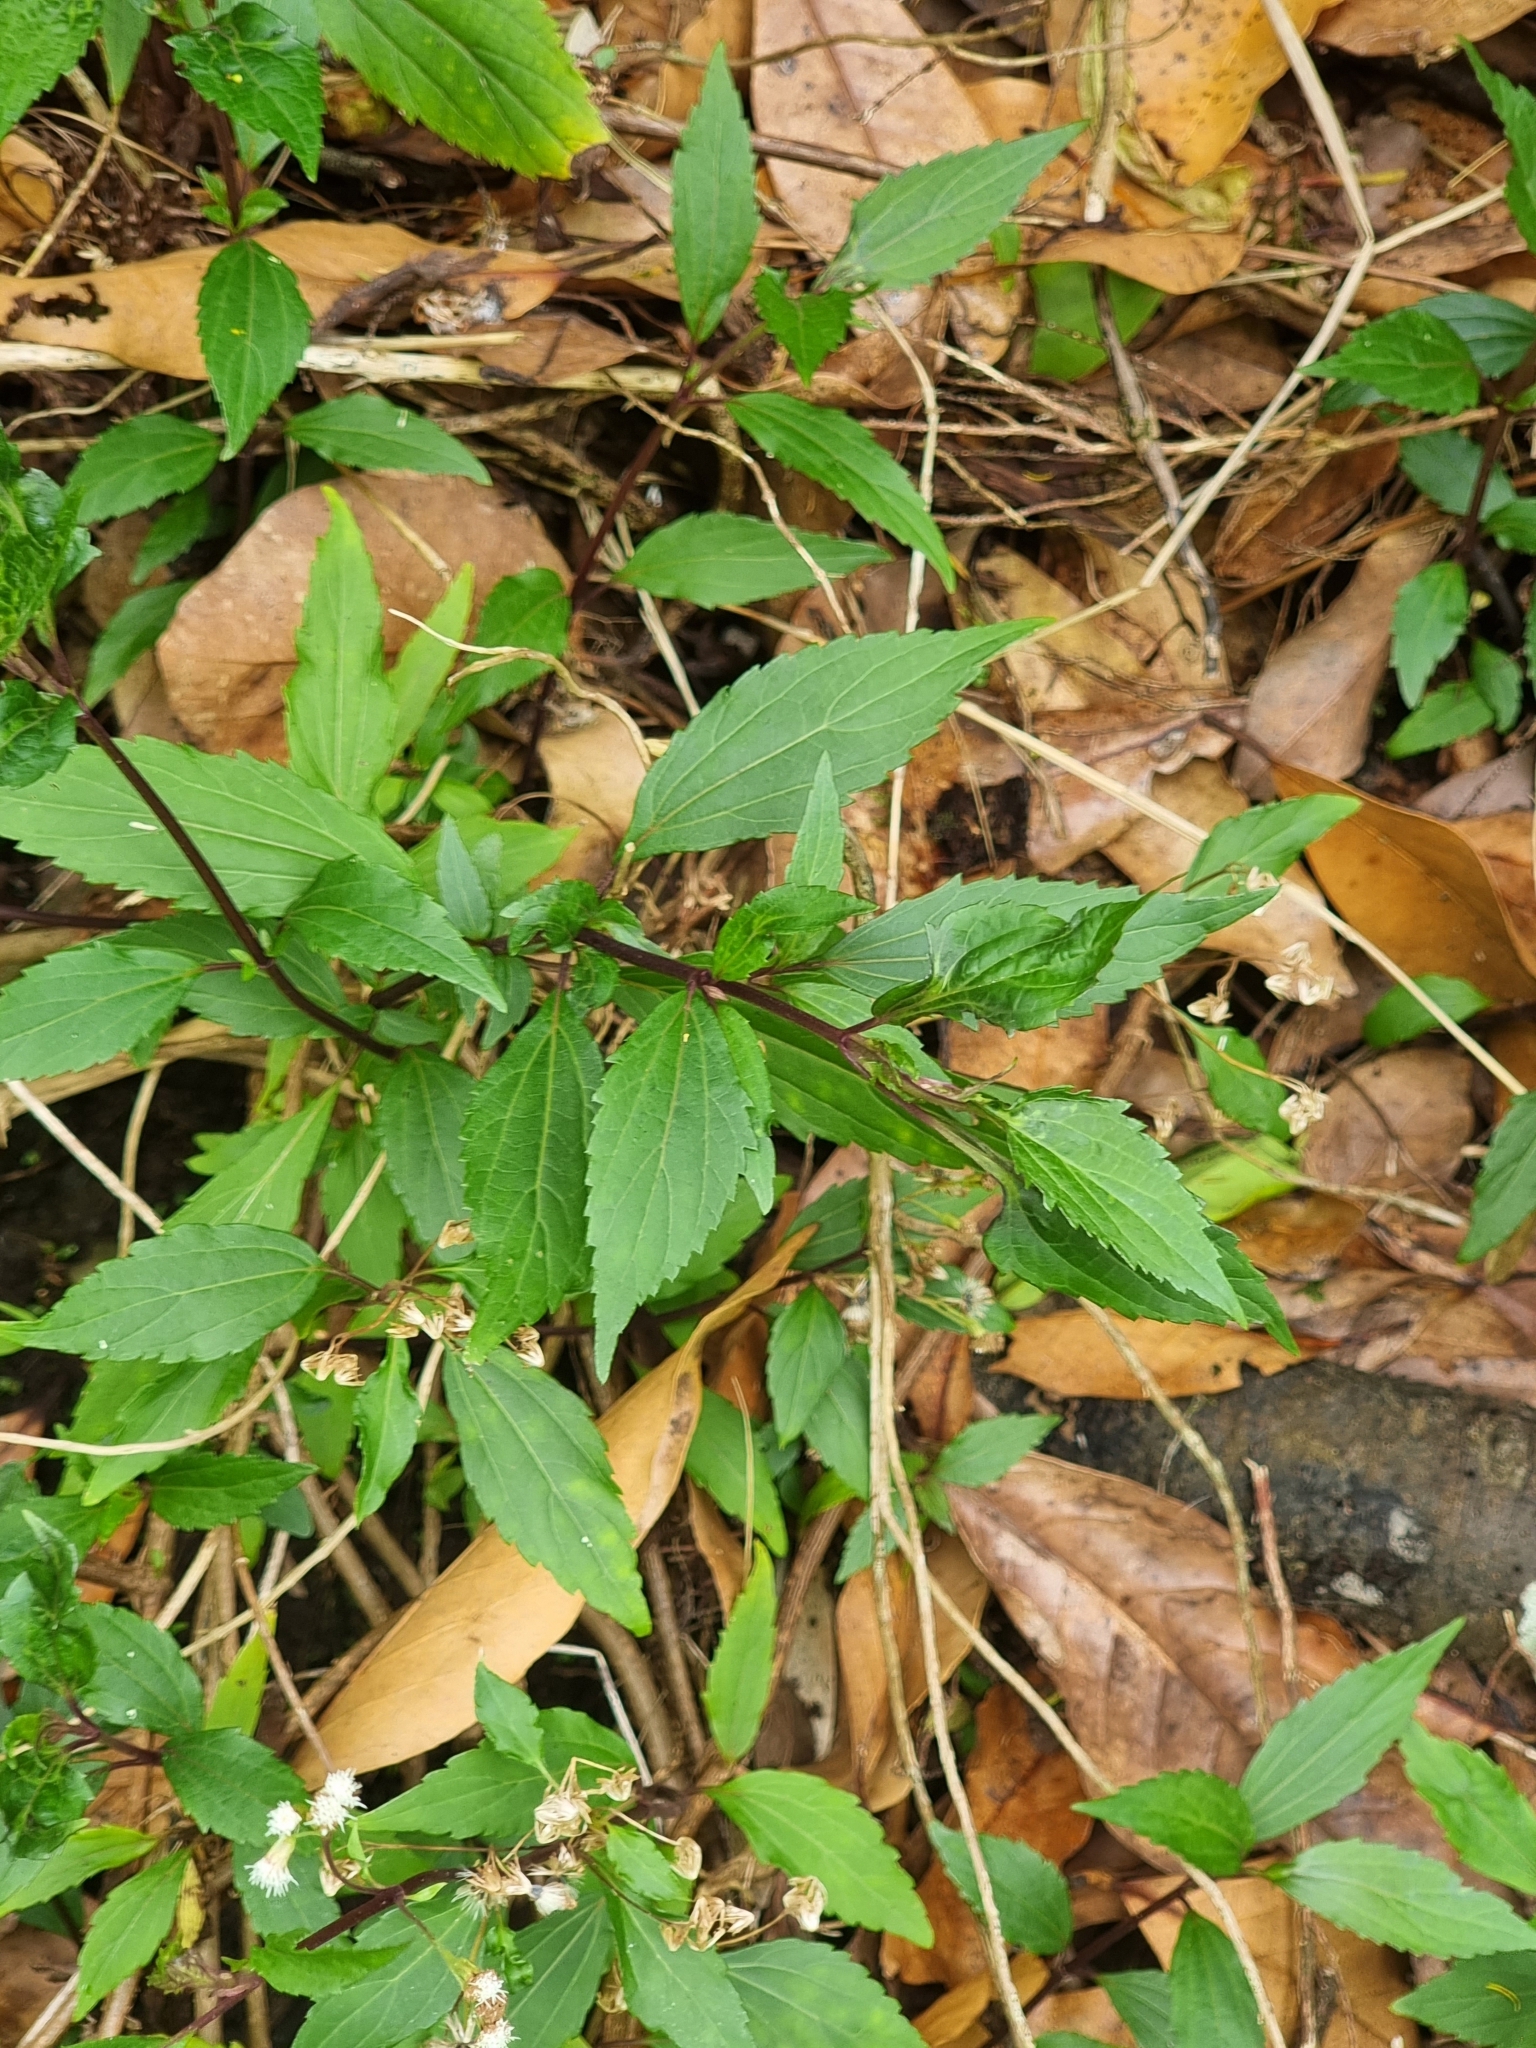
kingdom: Plantae
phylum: Tracheophyta
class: Magnoliopsida
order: Asterales
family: Asteraceae
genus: Ageratina
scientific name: Ageratina riparia
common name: Creeping croftonweed
